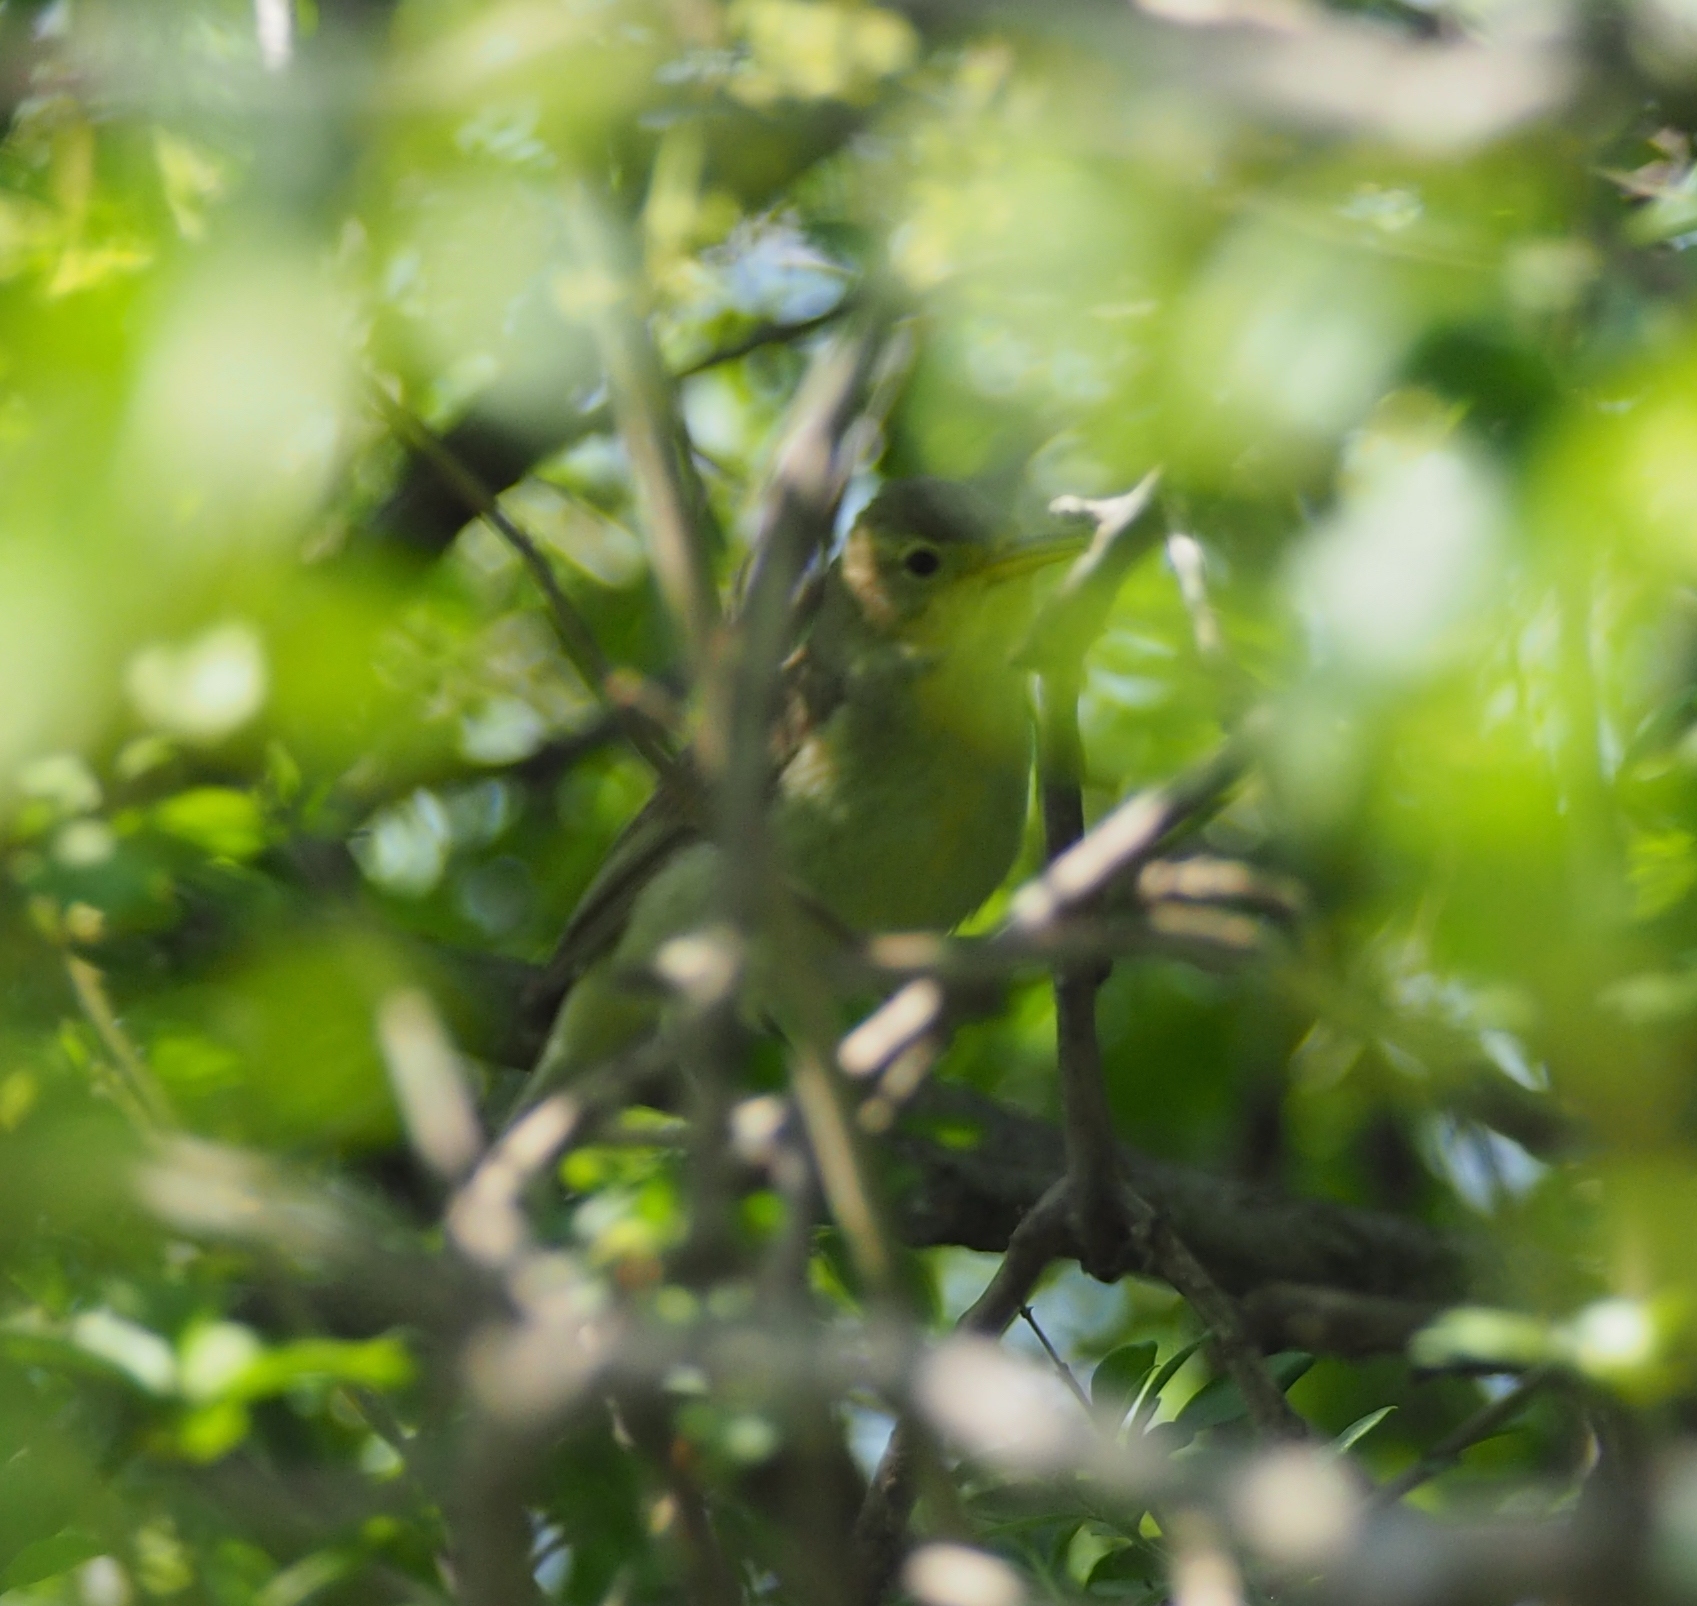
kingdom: Animalia
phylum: Chordata
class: Aves
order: Passeriformes
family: Acrocephalidae
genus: Hippolais
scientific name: Hippolais icterina
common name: Icterine warbler
